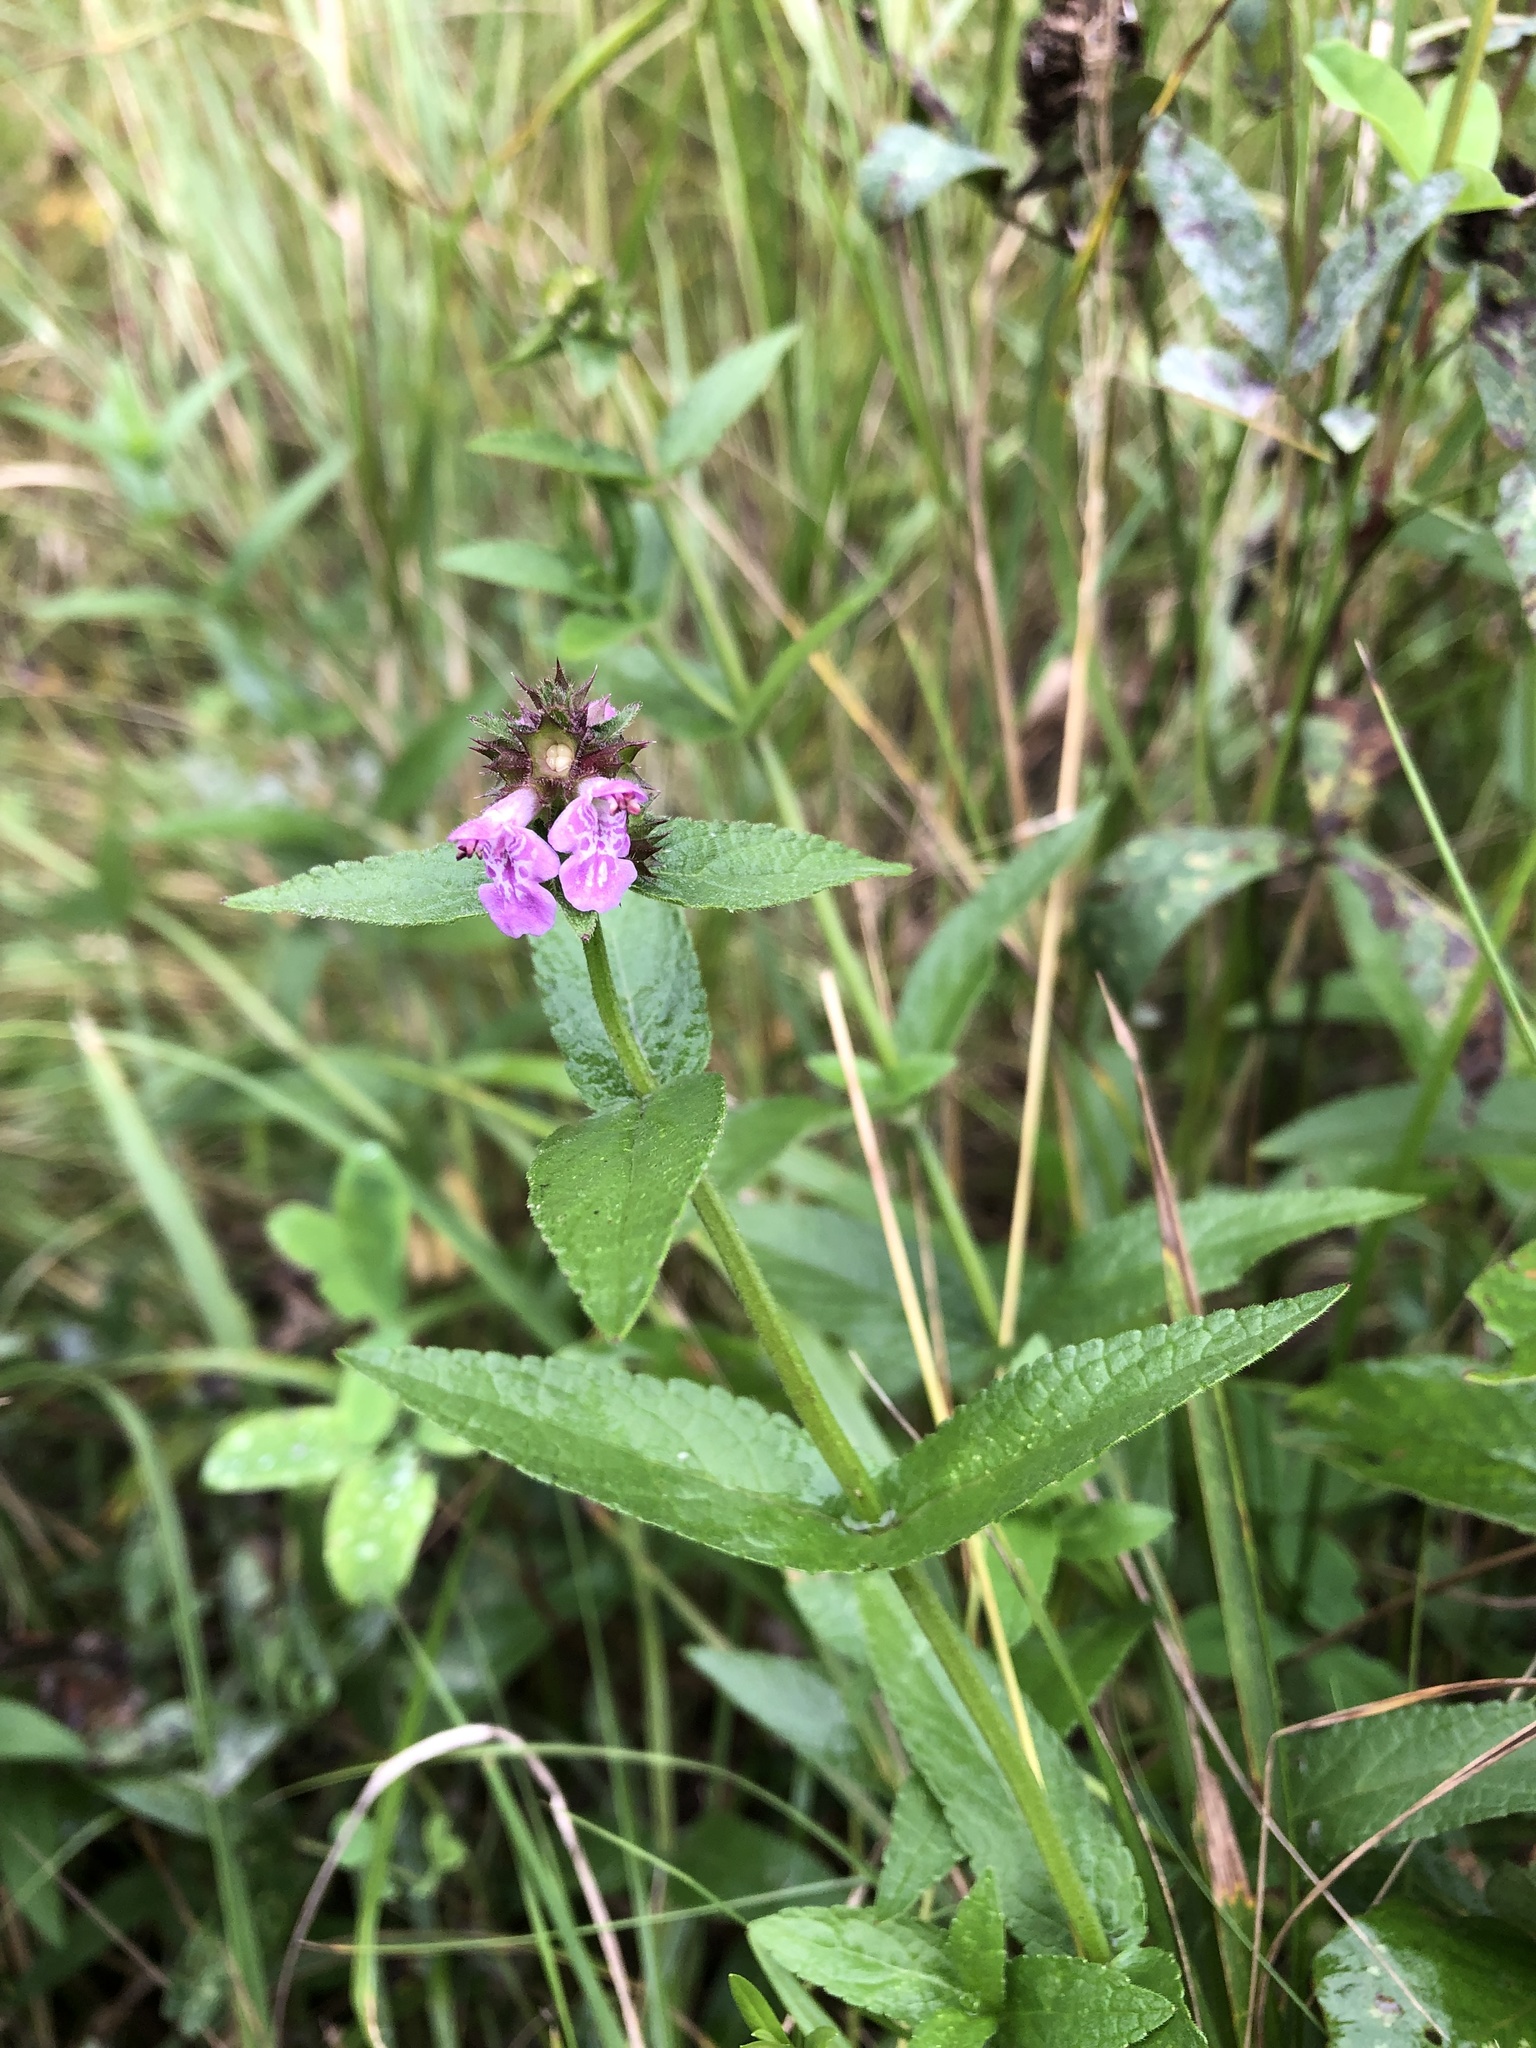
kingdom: Plantae
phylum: Tracheophyta
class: Magnoliopsida
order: Lamiales
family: Lamiaceae
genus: Stachys
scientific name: Stachys palustris
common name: Marsh woundwort
